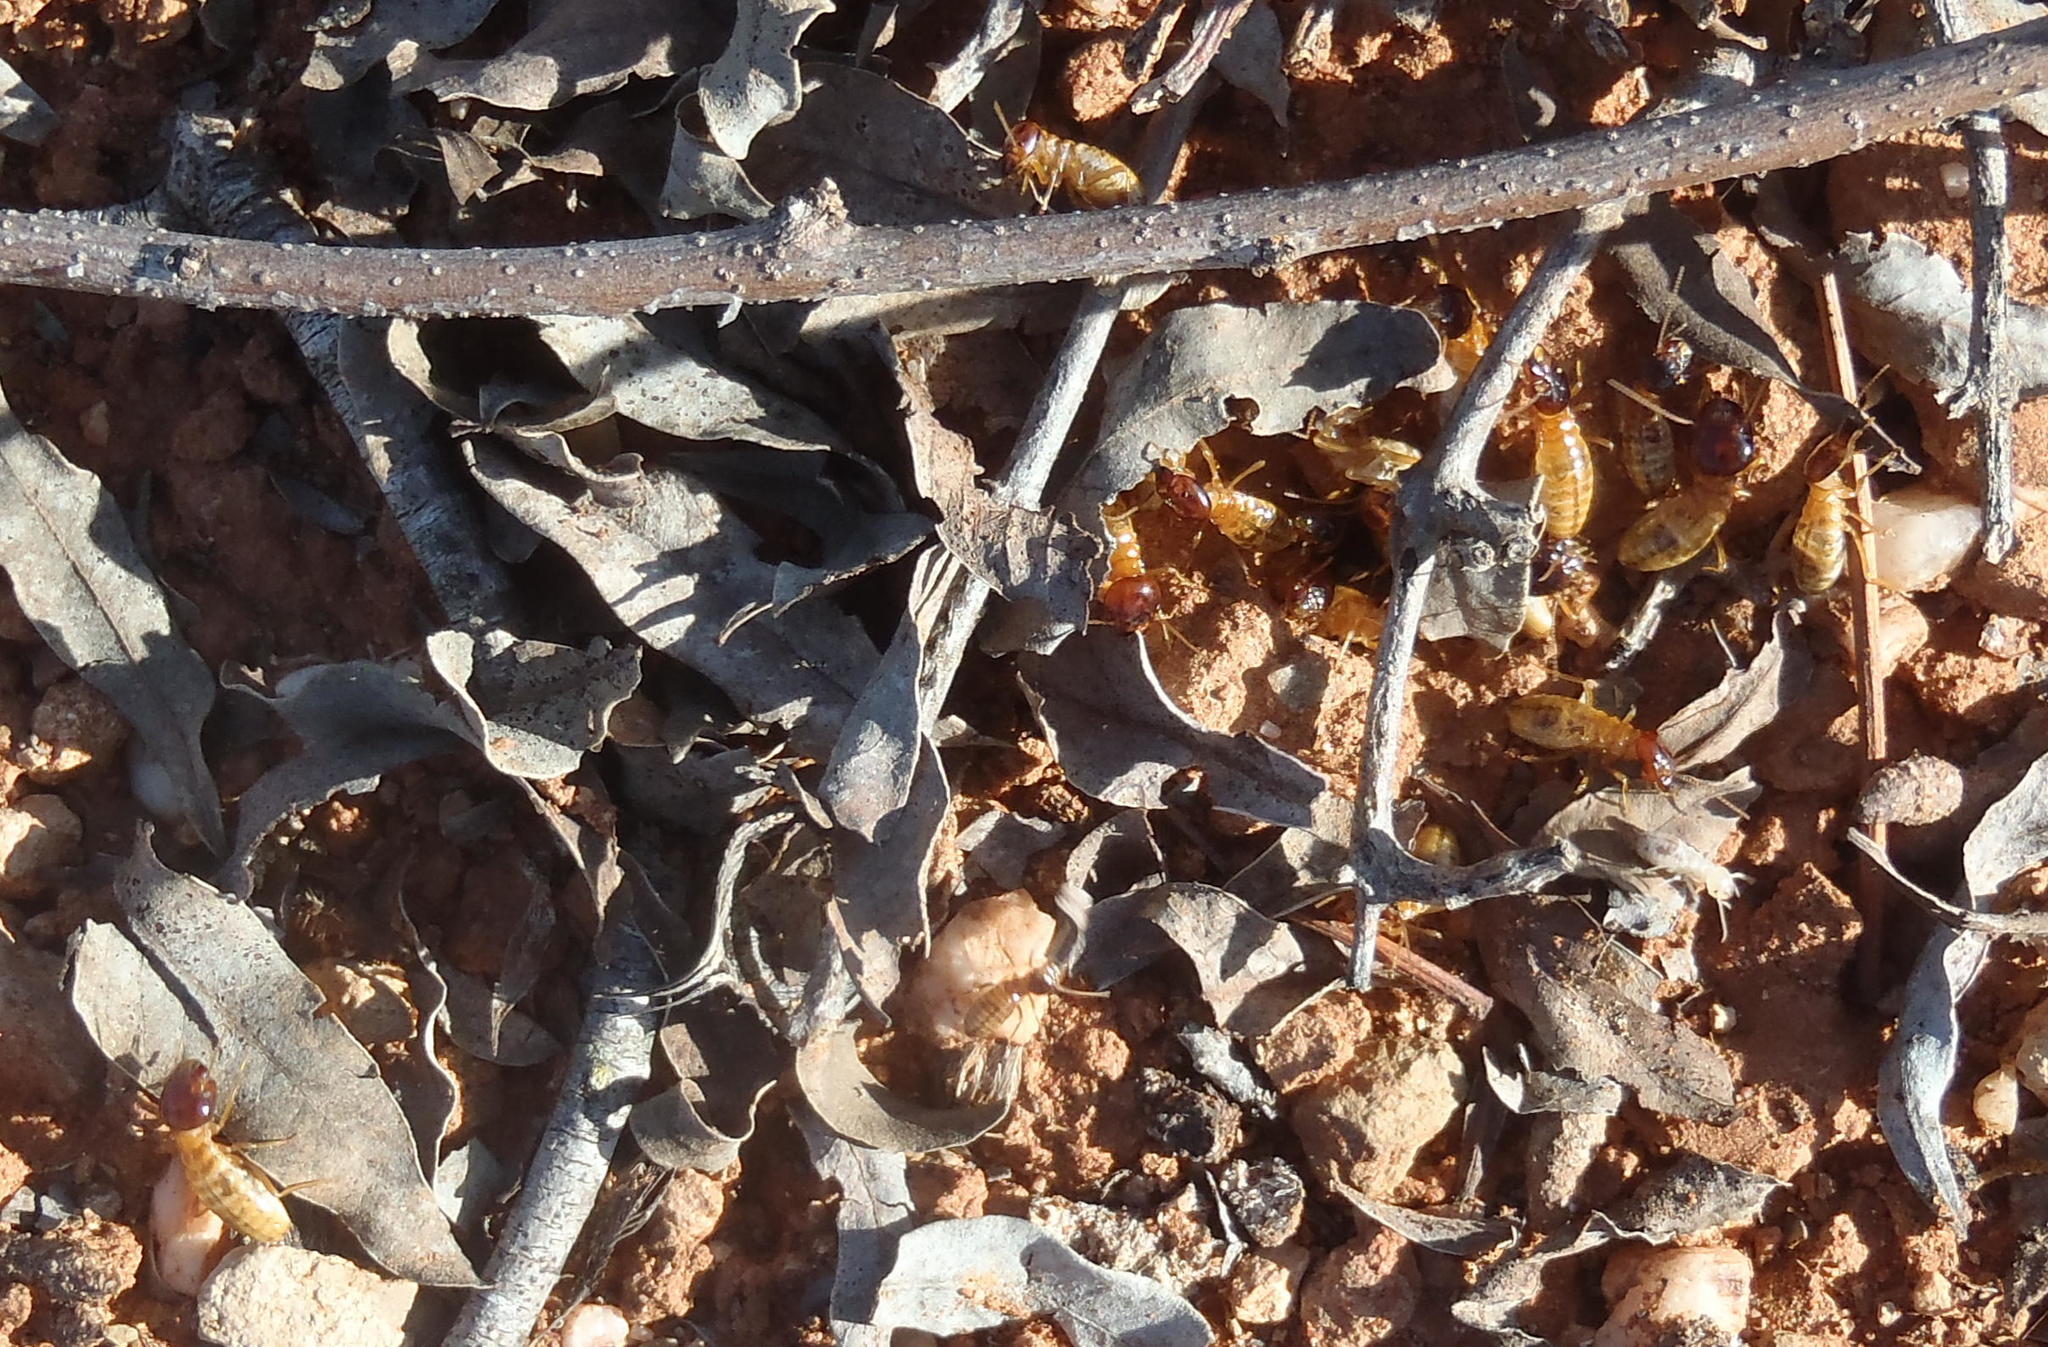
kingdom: Animalia
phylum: Arthropoda
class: Insecta
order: Blattodea
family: Hodotermitidae
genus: Microhodotermes
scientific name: Microhodotermes viator
